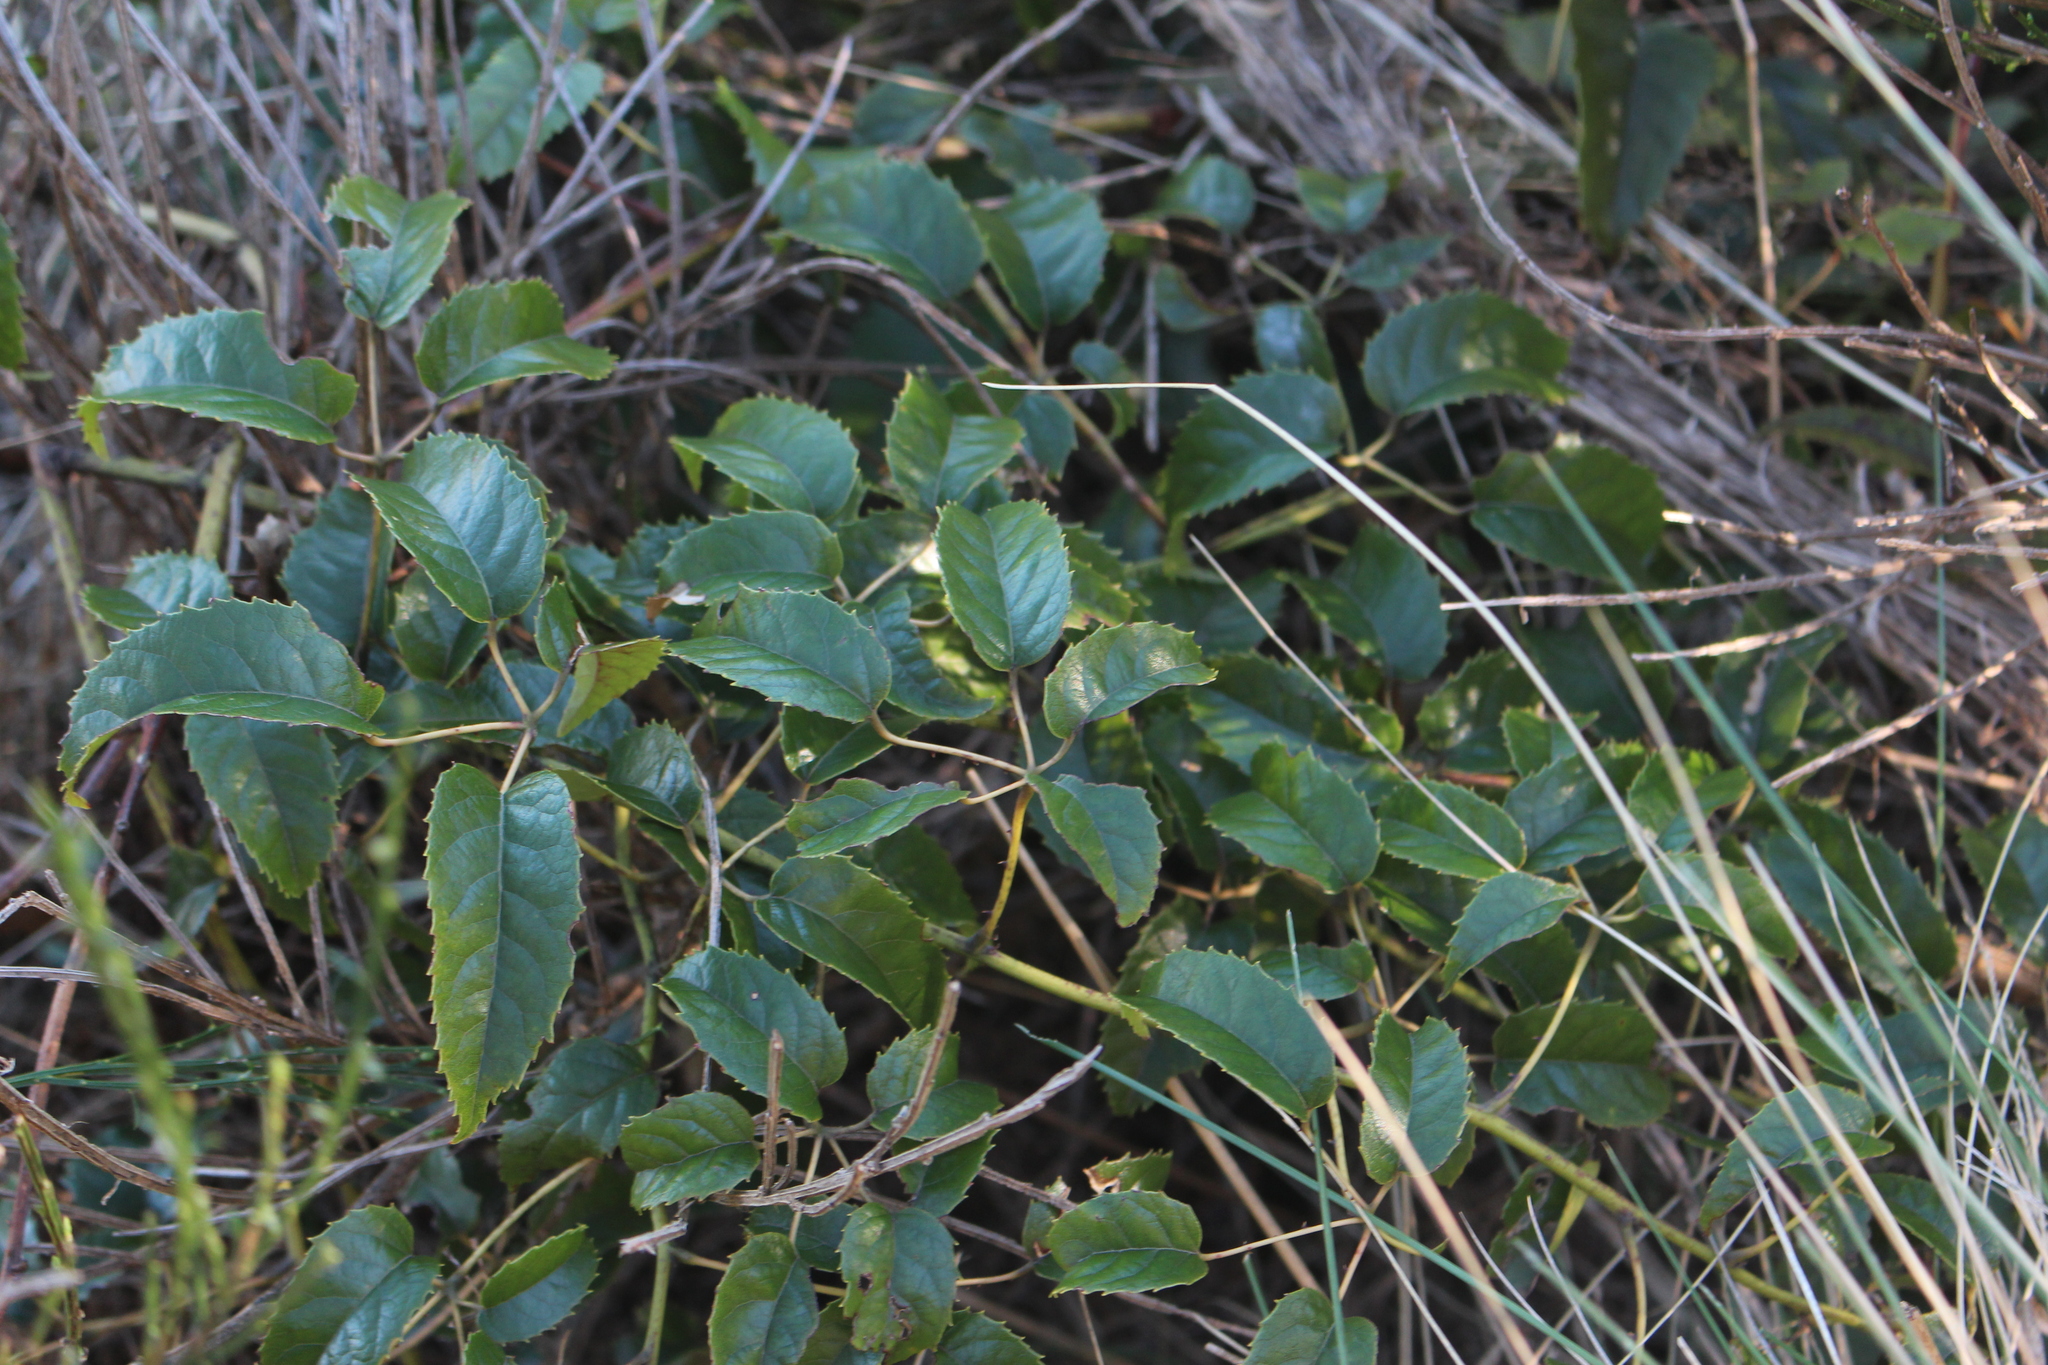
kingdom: Plantae
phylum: Tracheophyta
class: Magnoliopsida
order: Rosales
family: Rosaceae
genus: Rubus
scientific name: Rubus cissoides
